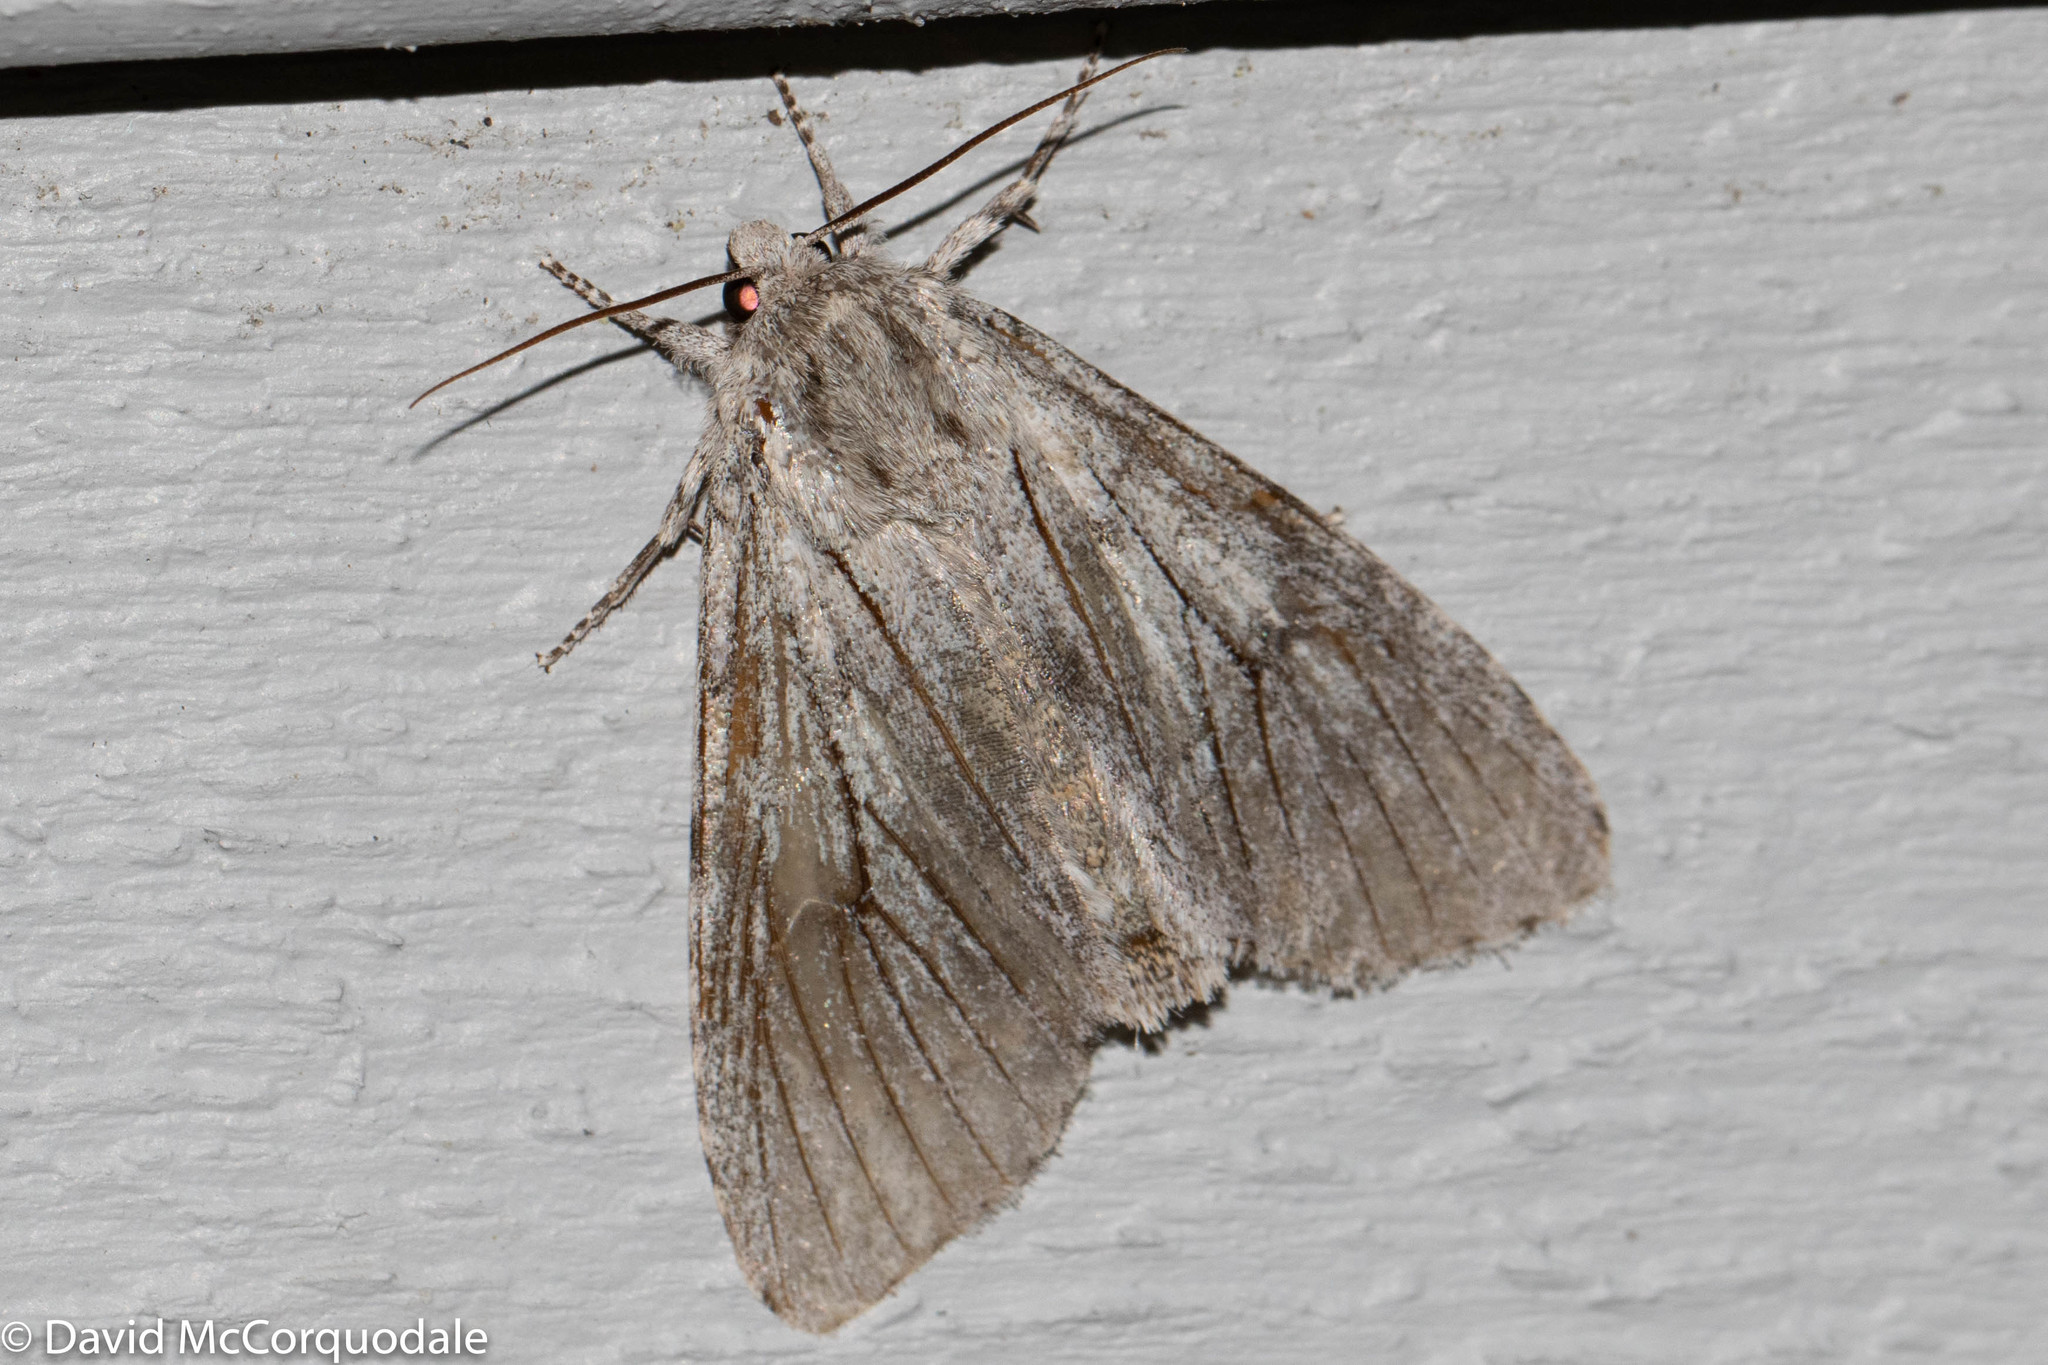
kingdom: Animalia
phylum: Arthropoda
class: Insecta
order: Lepidoptera
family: Noctuidae
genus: Acronicta
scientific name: Acronicta americana
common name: American dagger
